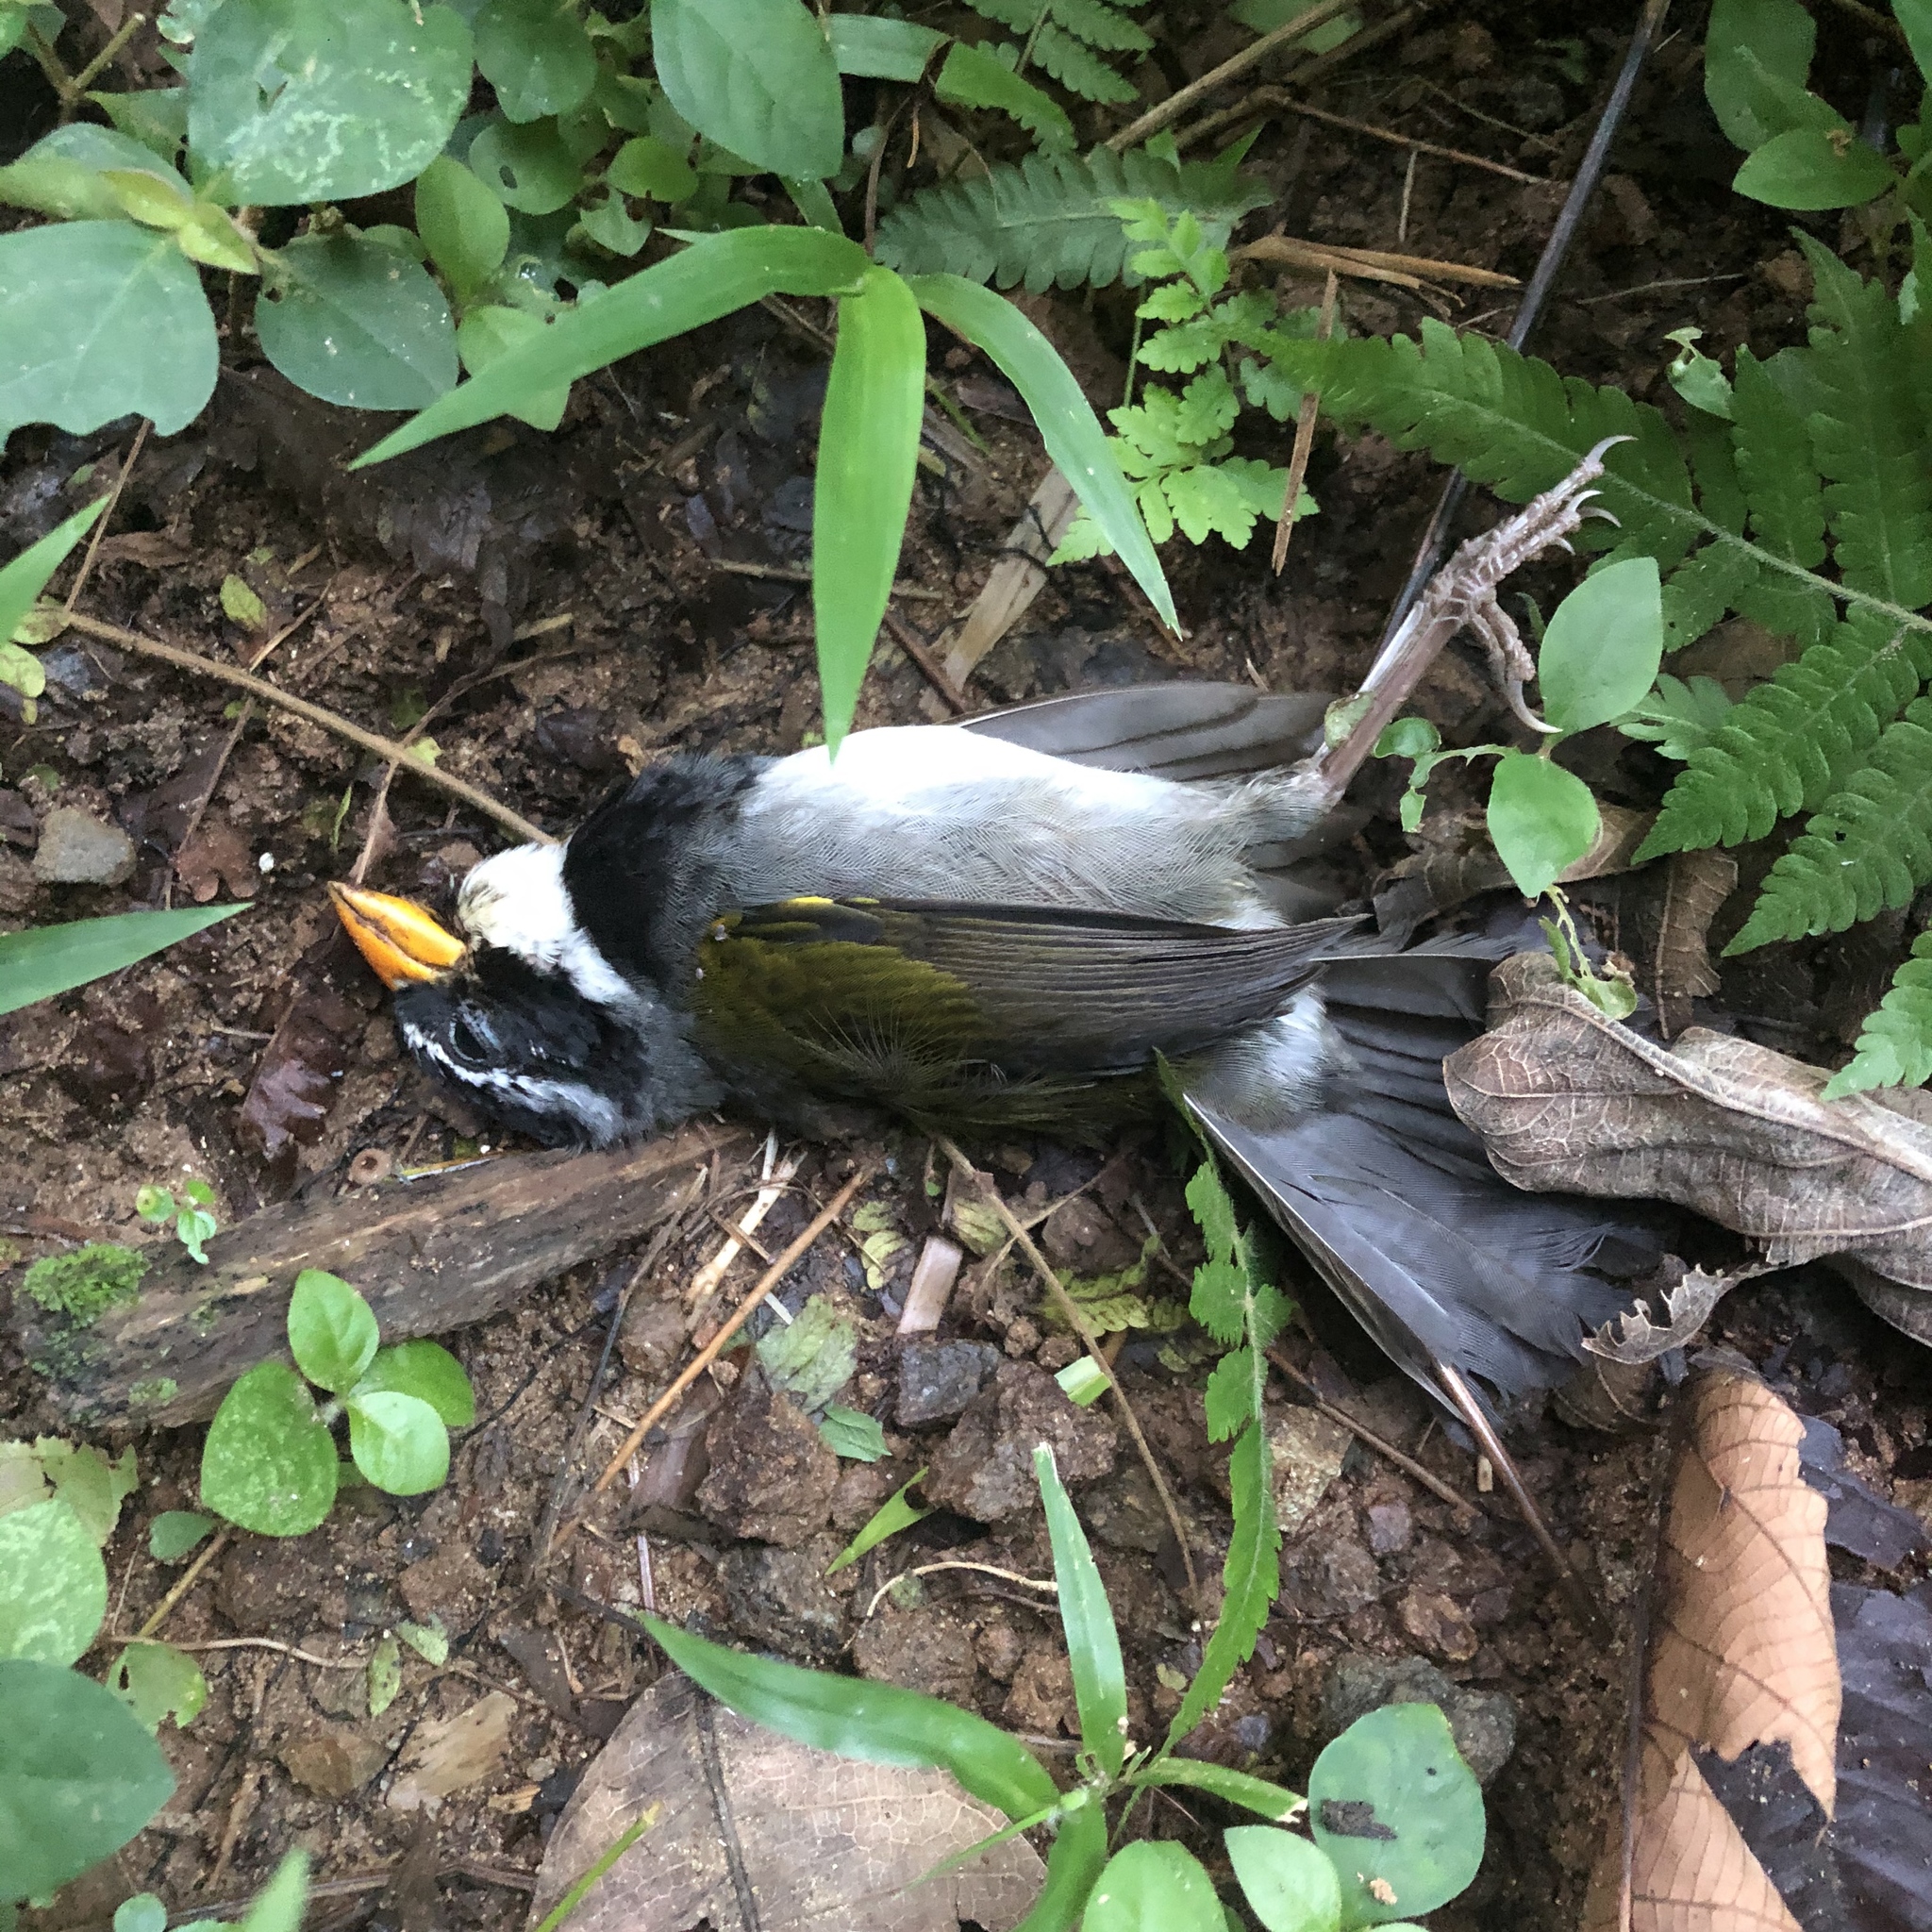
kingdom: Animalia
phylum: Chordata
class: Aves
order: Passeriformes
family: Passerellidae
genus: Arremon
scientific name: Arremon aurantiirostris
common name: Orange-billed sparrow
